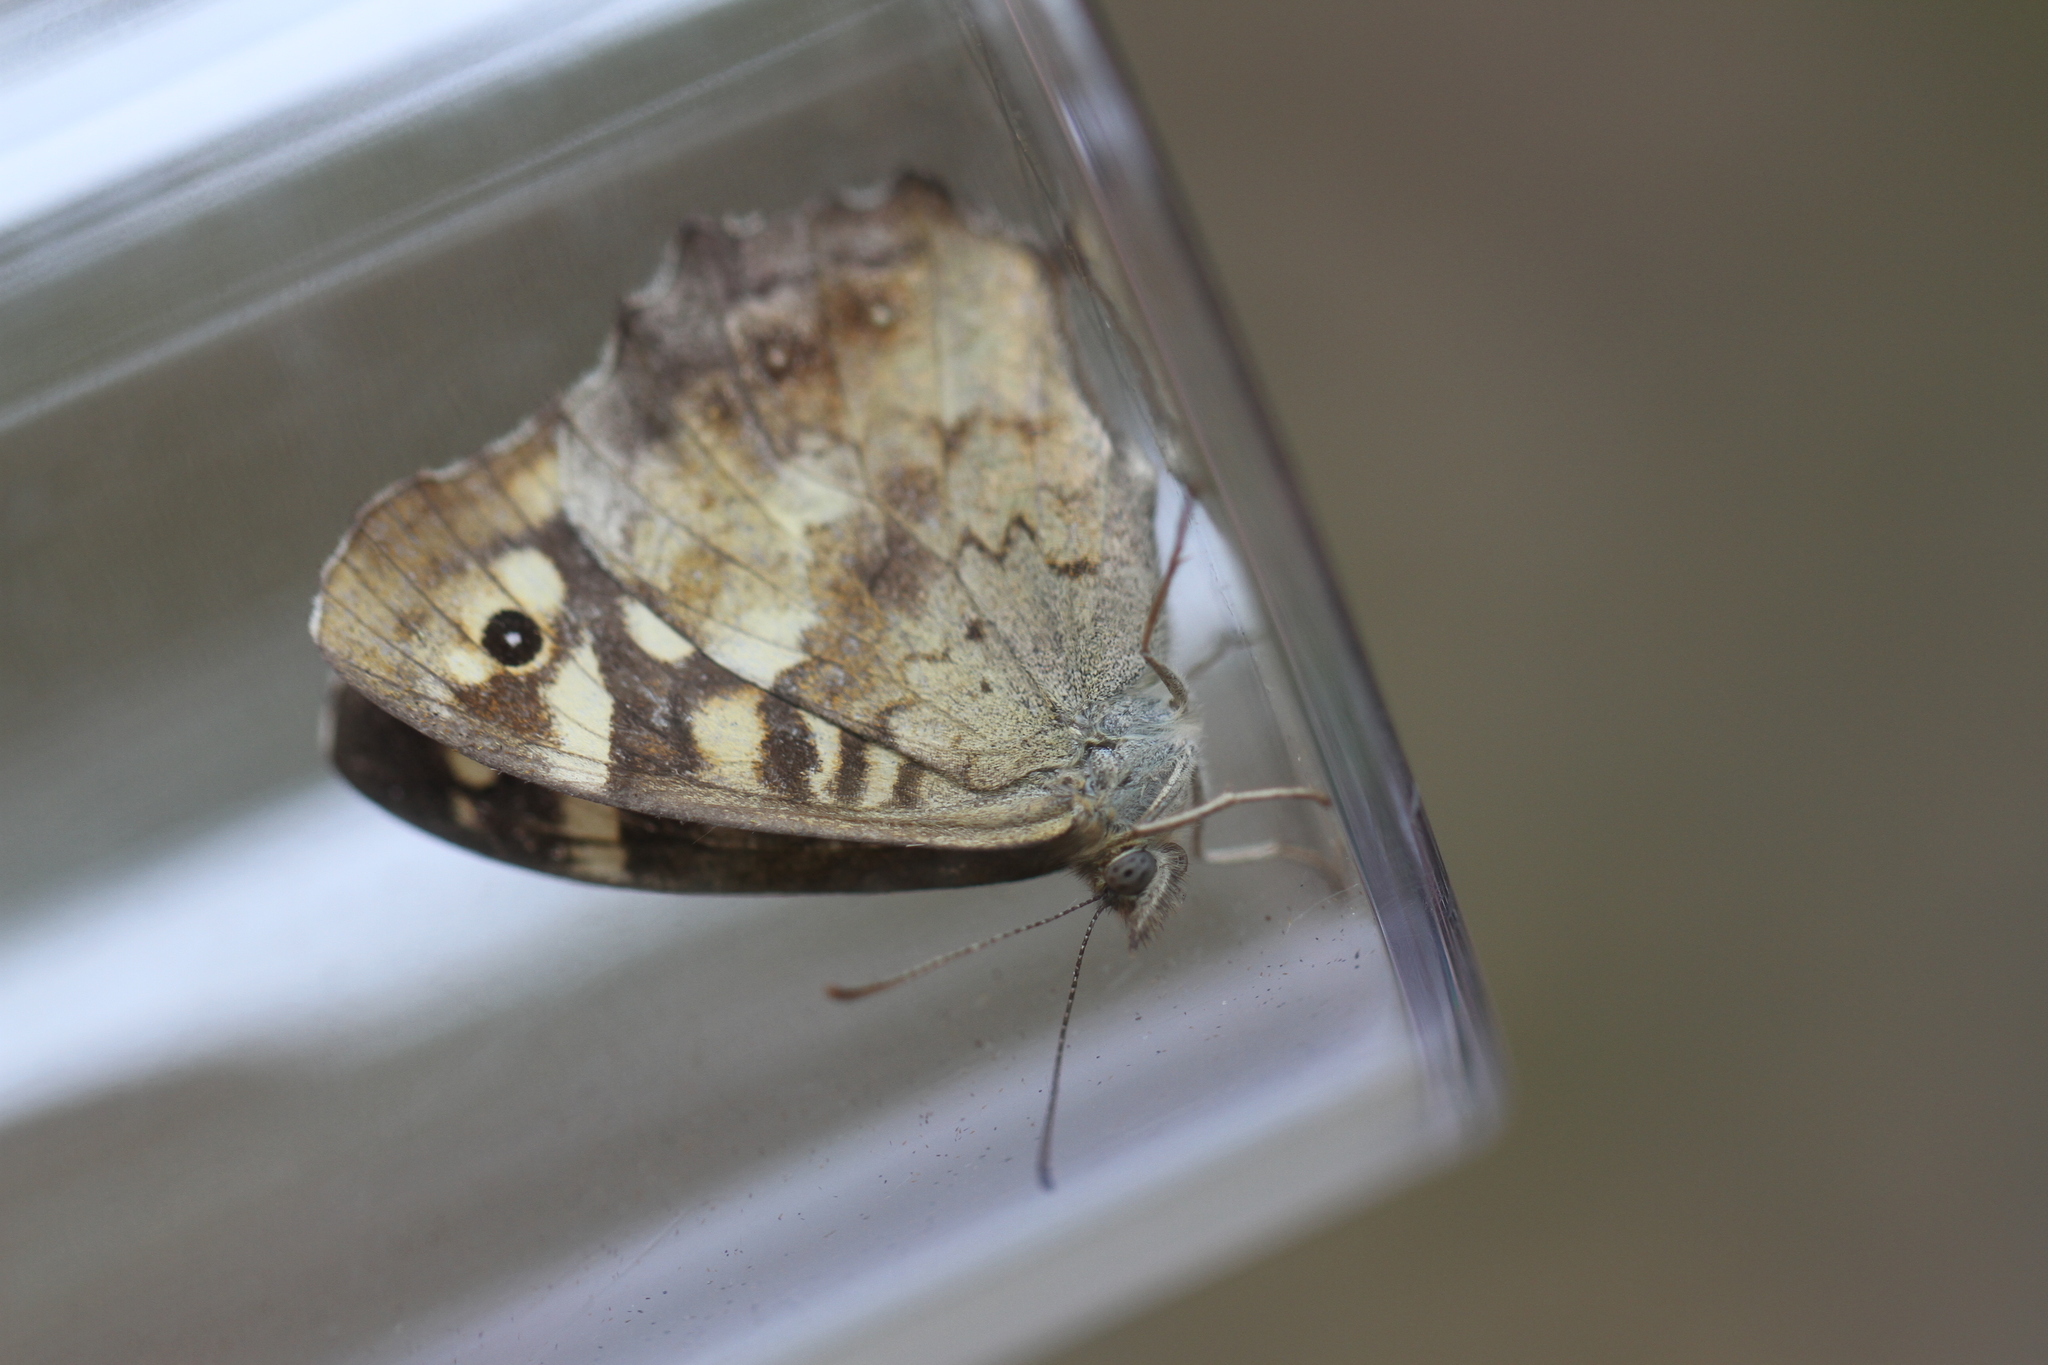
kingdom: Animalia
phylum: Arthropoda
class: Insecta
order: Lepidoptera
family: Nymphalidae
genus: Pararge
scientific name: Pararge aegeria
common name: Speckled wood
